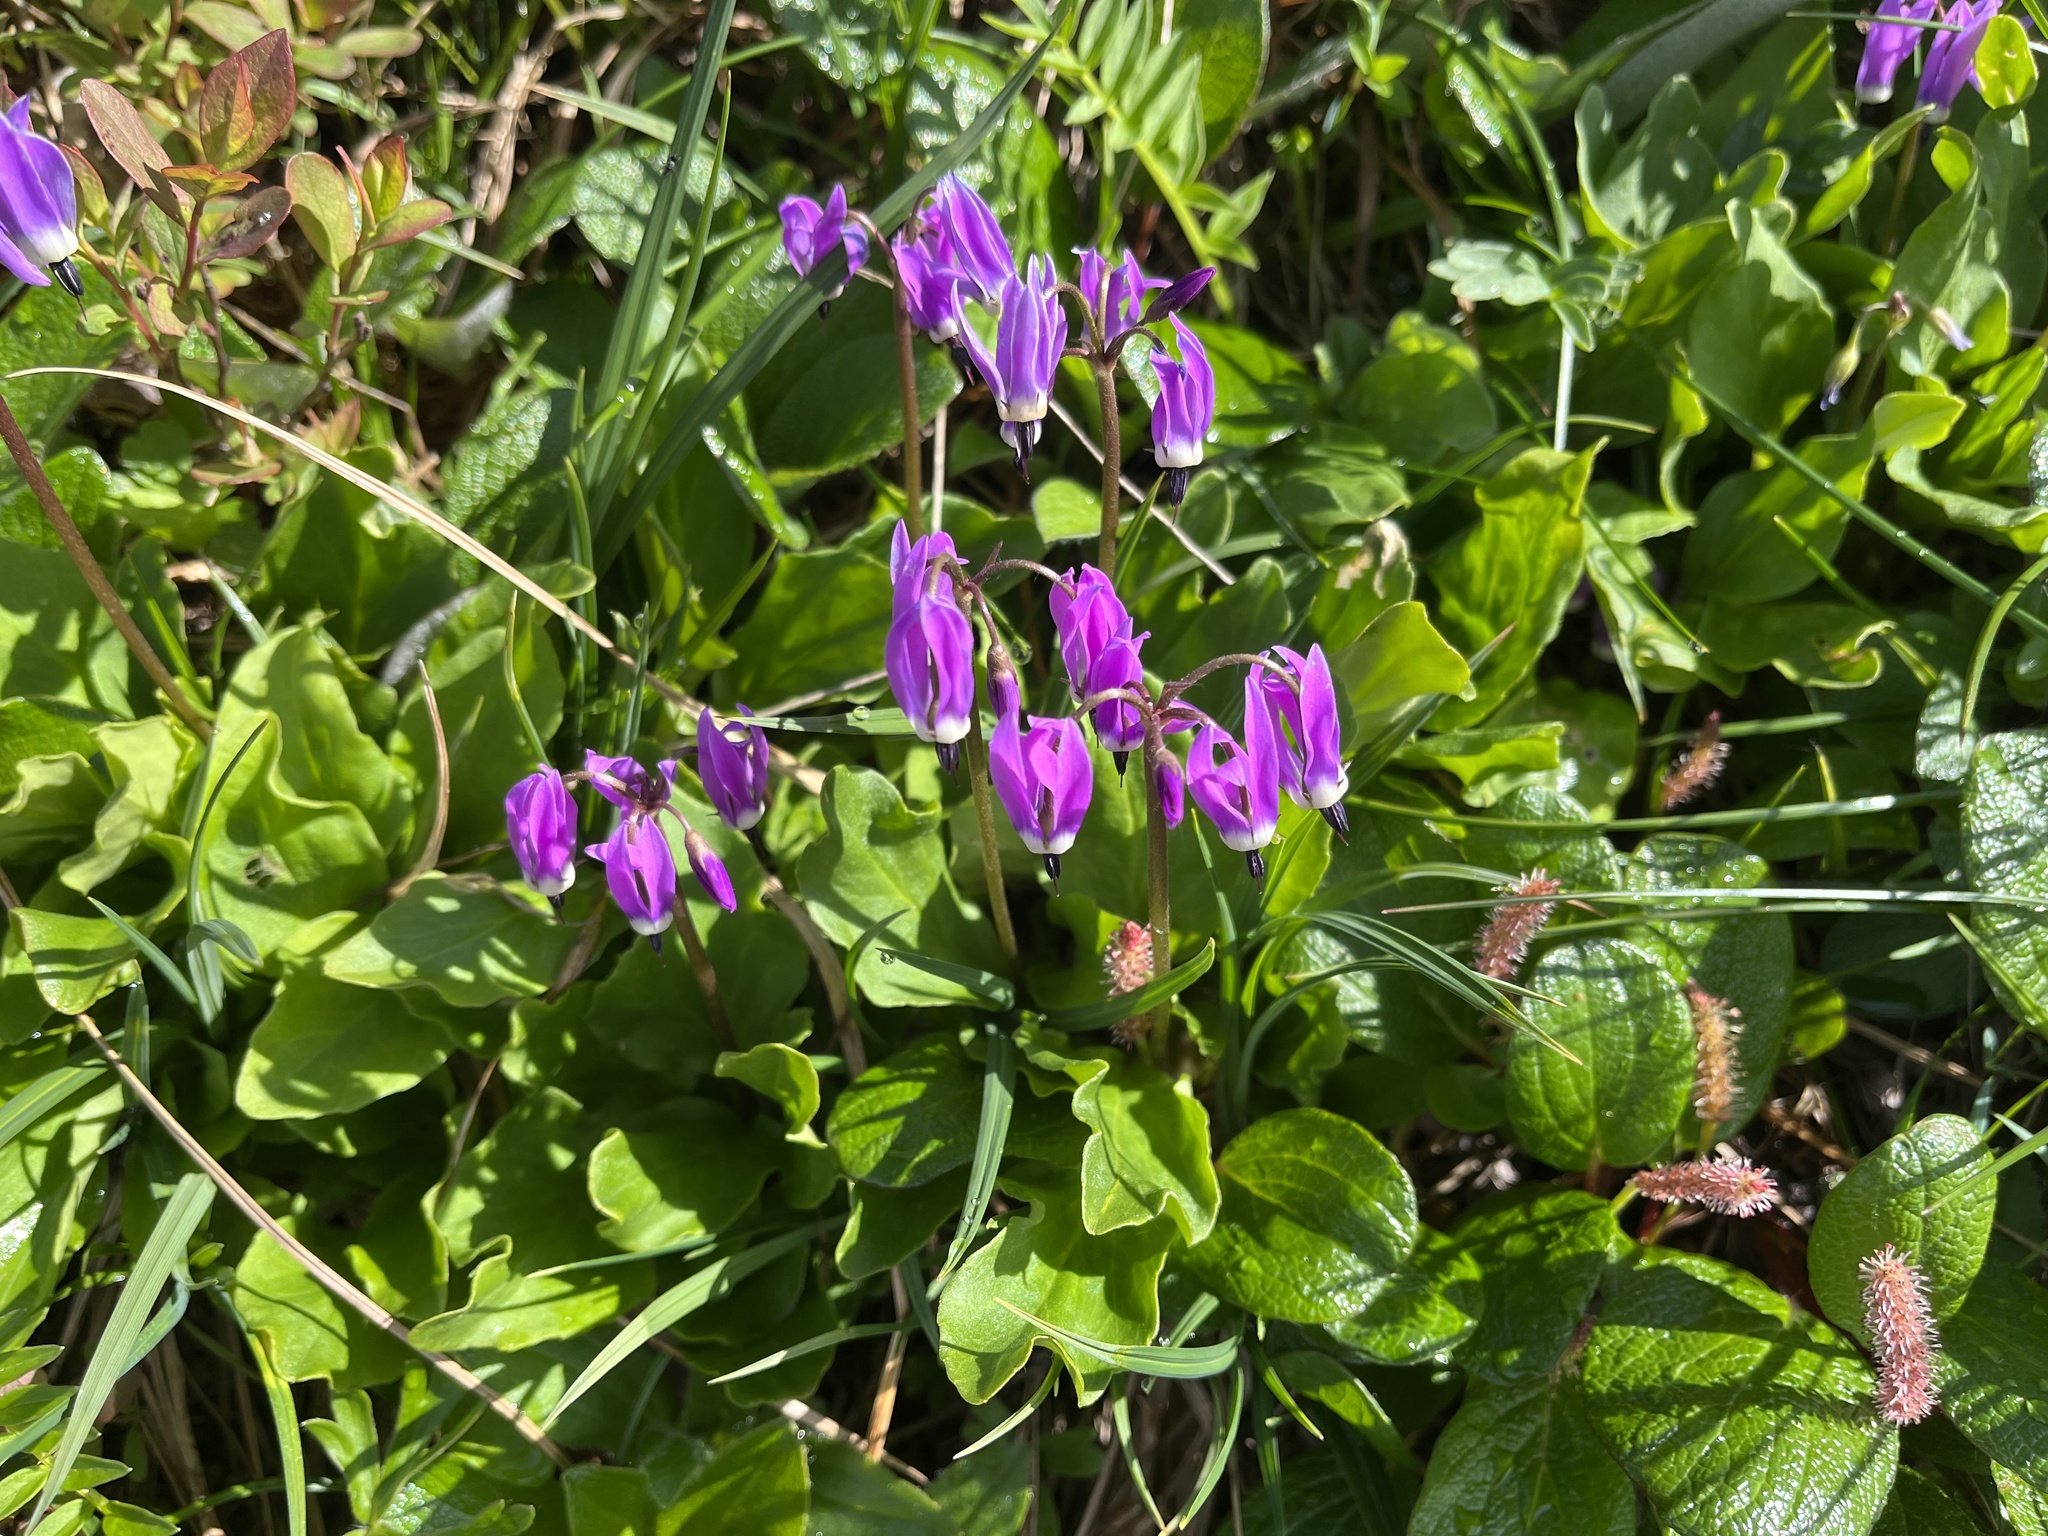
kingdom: Plantae
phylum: Tracheophyta
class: Magnoliopsida
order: Ericales
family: Primulaceae
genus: Dodecatheon
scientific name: Dodecatheon frigidum
